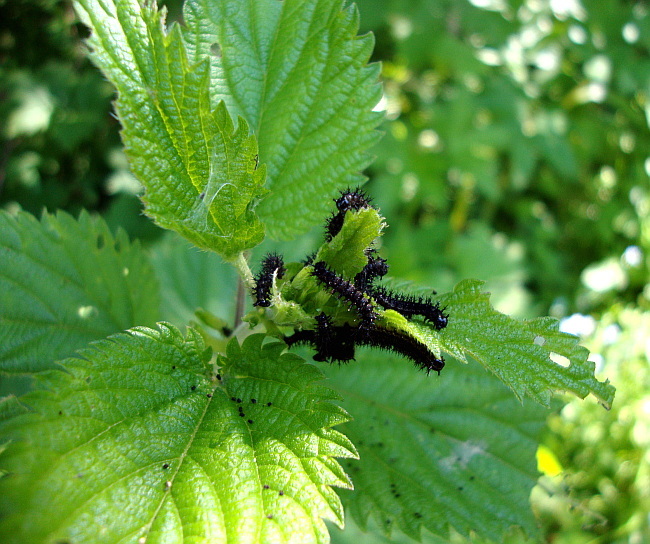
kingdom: Plantae
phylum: Tracheophyta
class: Magnoliopsida
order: Rosales
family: Urticaceae
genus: Urtica
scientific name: Urtica dioica
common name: Common nettle
